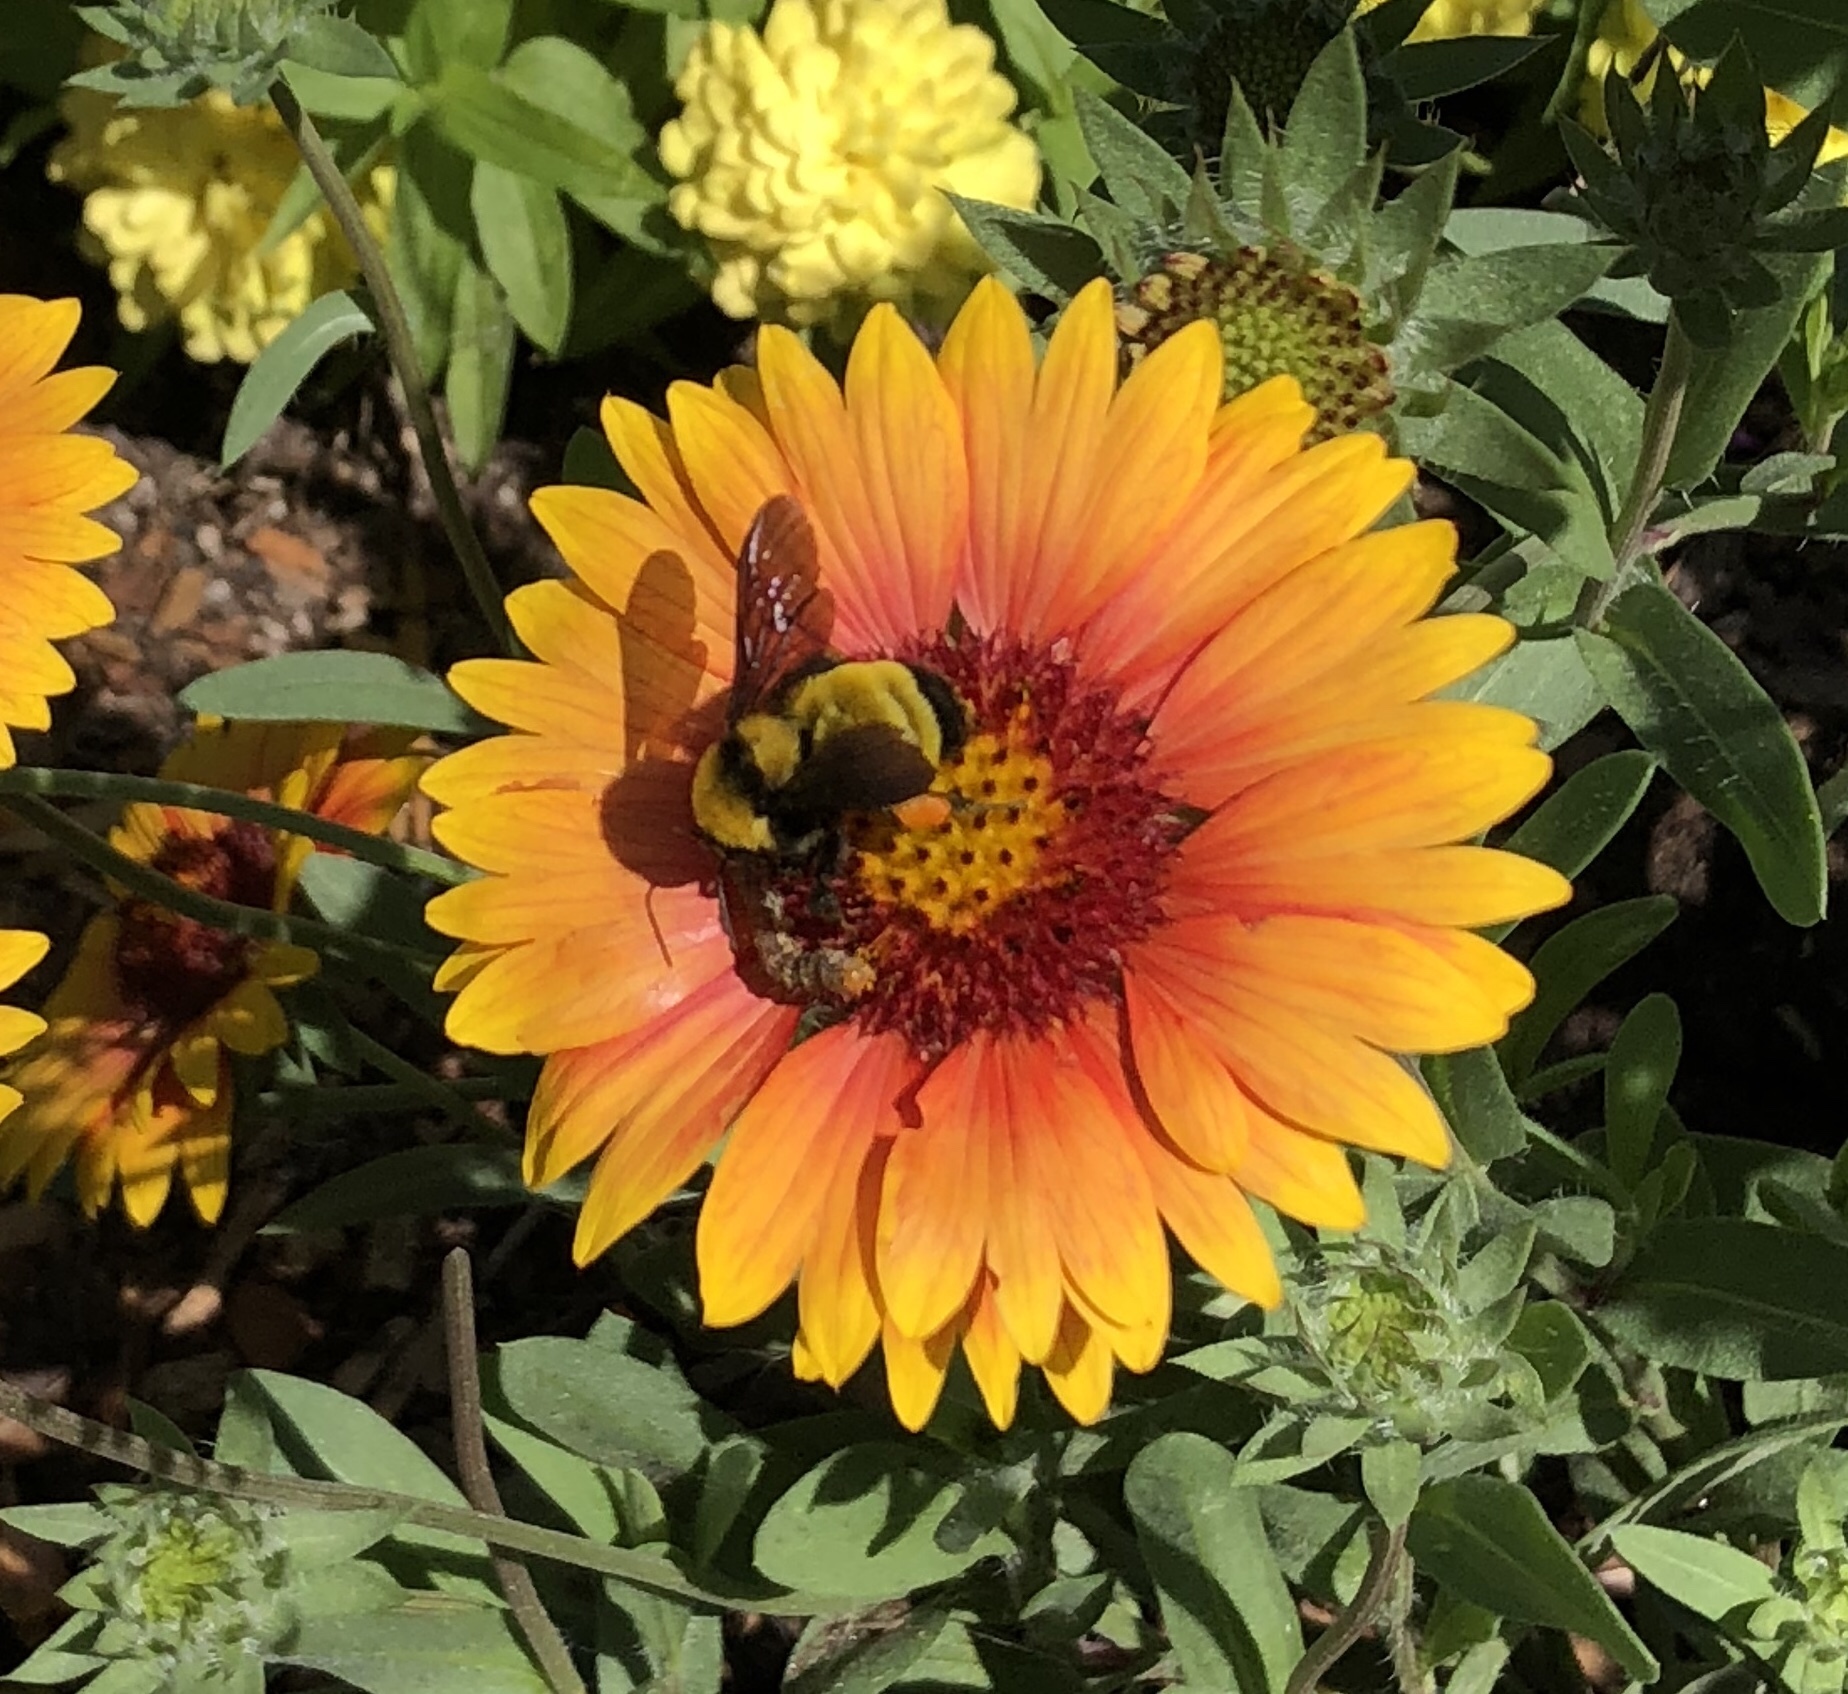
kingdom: Animalia
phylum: Arthropoda
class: Insecta
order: Hymenoptera
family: Apidae
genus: Bombus
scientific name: Bombus sonorus
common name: Sonoran bumble bee
